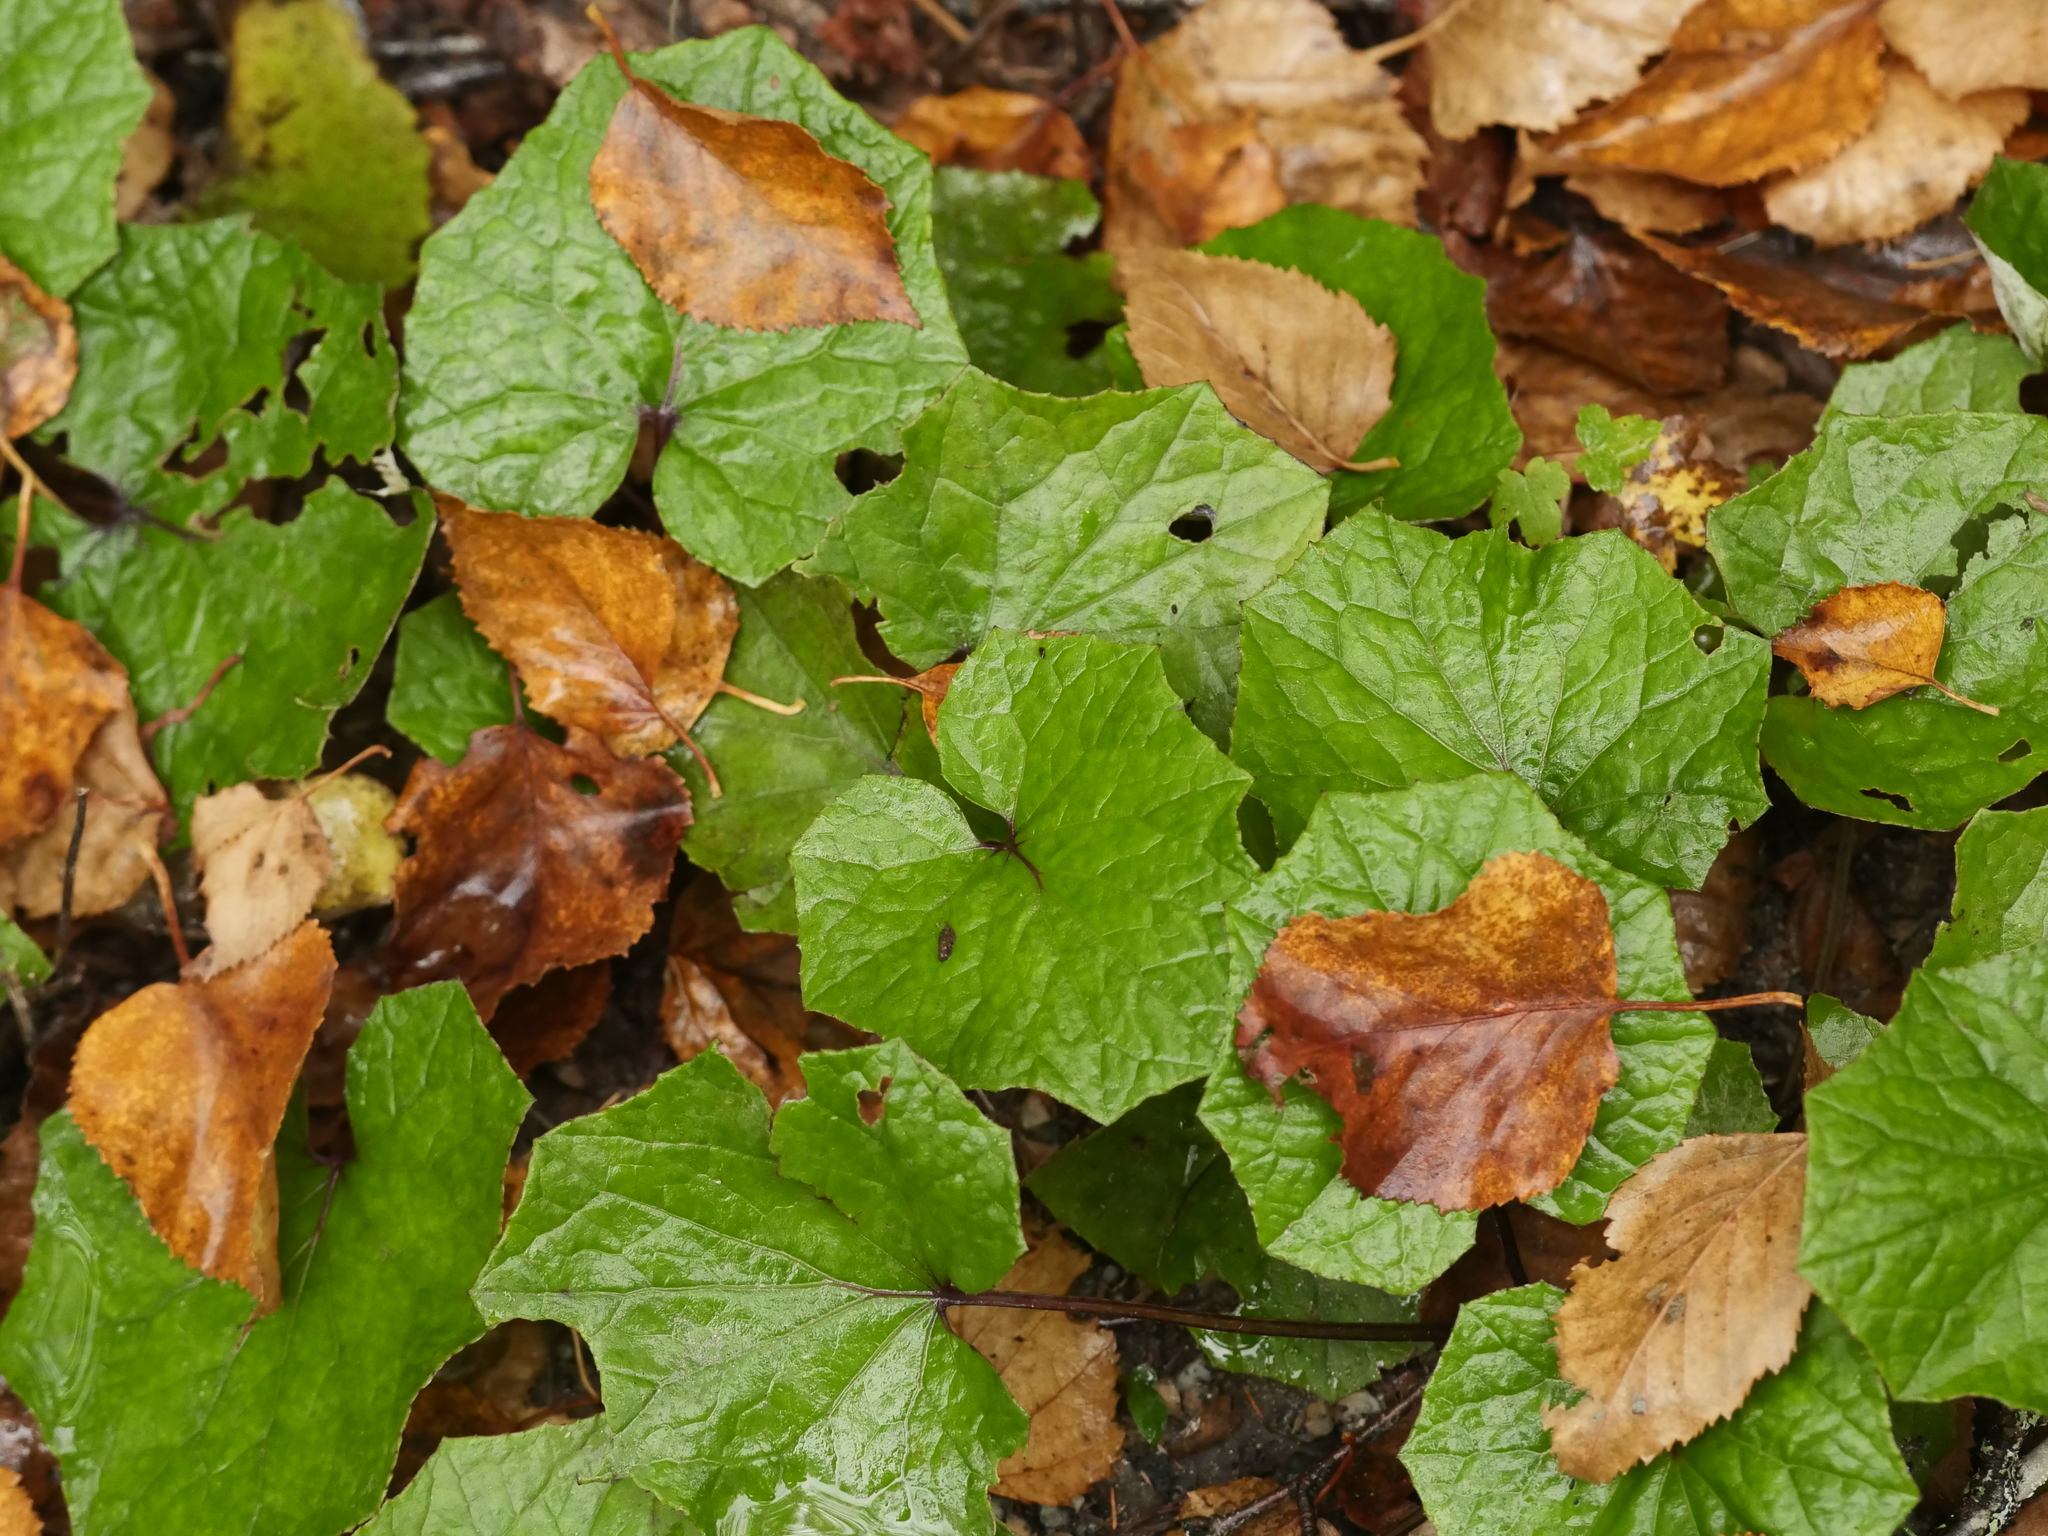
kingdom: Plantae
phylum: Tracheophyta
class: Magnoliopsida
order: Asterales
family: Asteraceae
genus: Tussilago
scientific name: Tussilago farfara
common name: Coltsfoot
